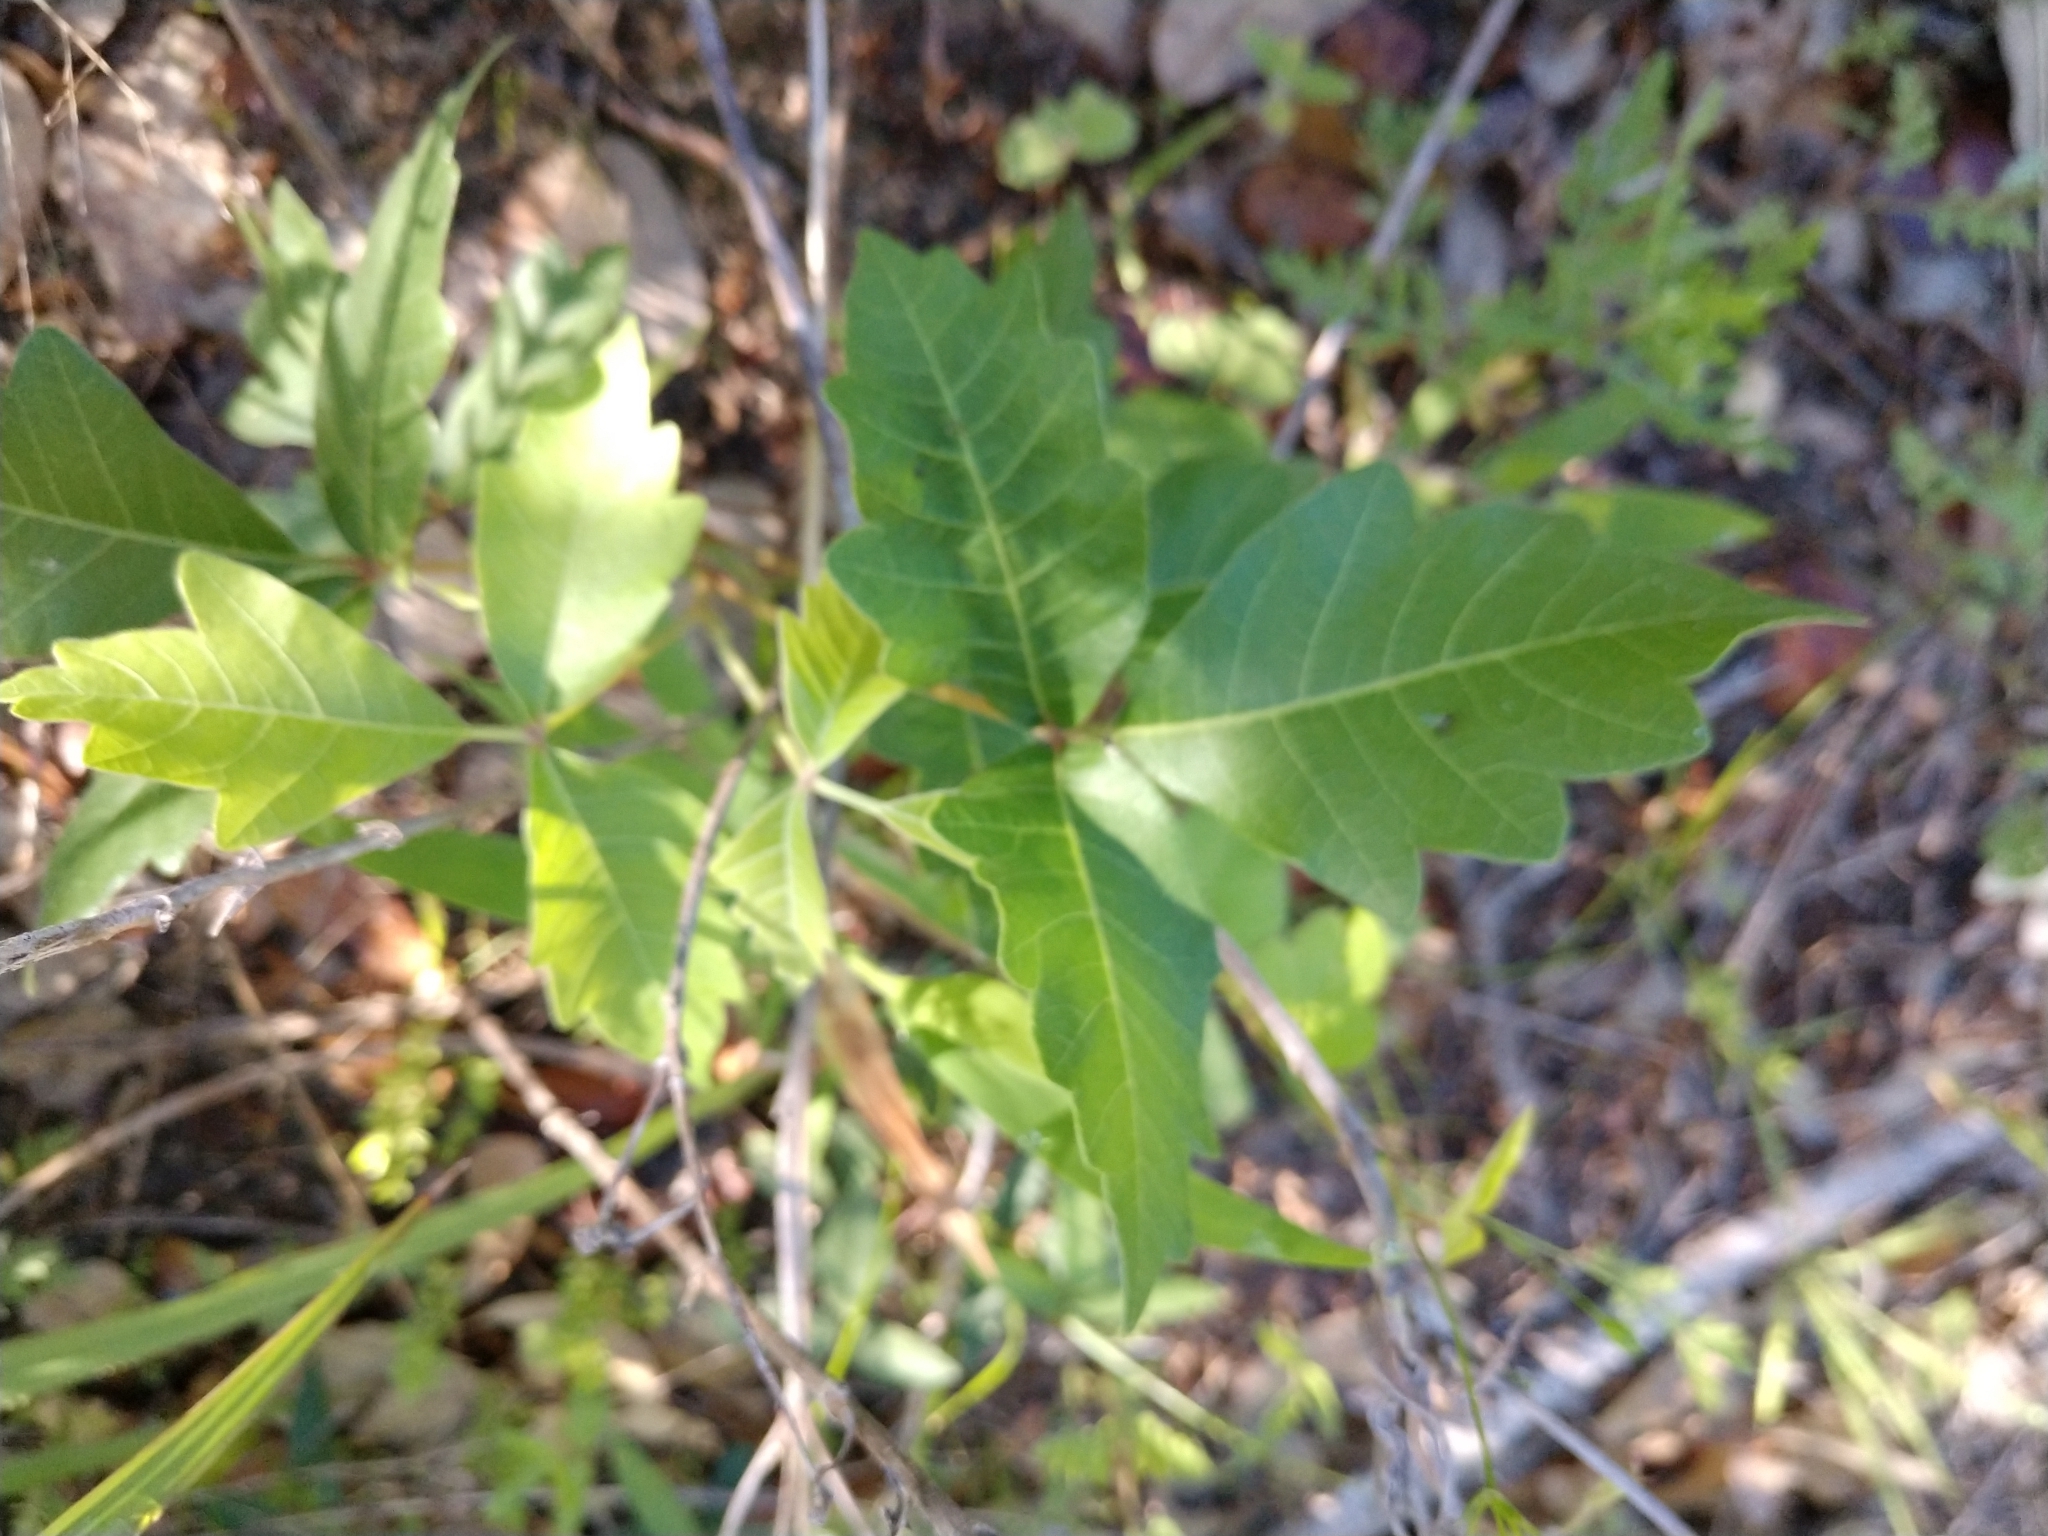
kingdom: Plantae
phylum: Tracheophyta
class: Magnoliopsida
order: Sapindales
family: Anacardiaceae
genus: Toxicodendron
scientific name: Toxicodendron radicans
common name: Poison ivy
